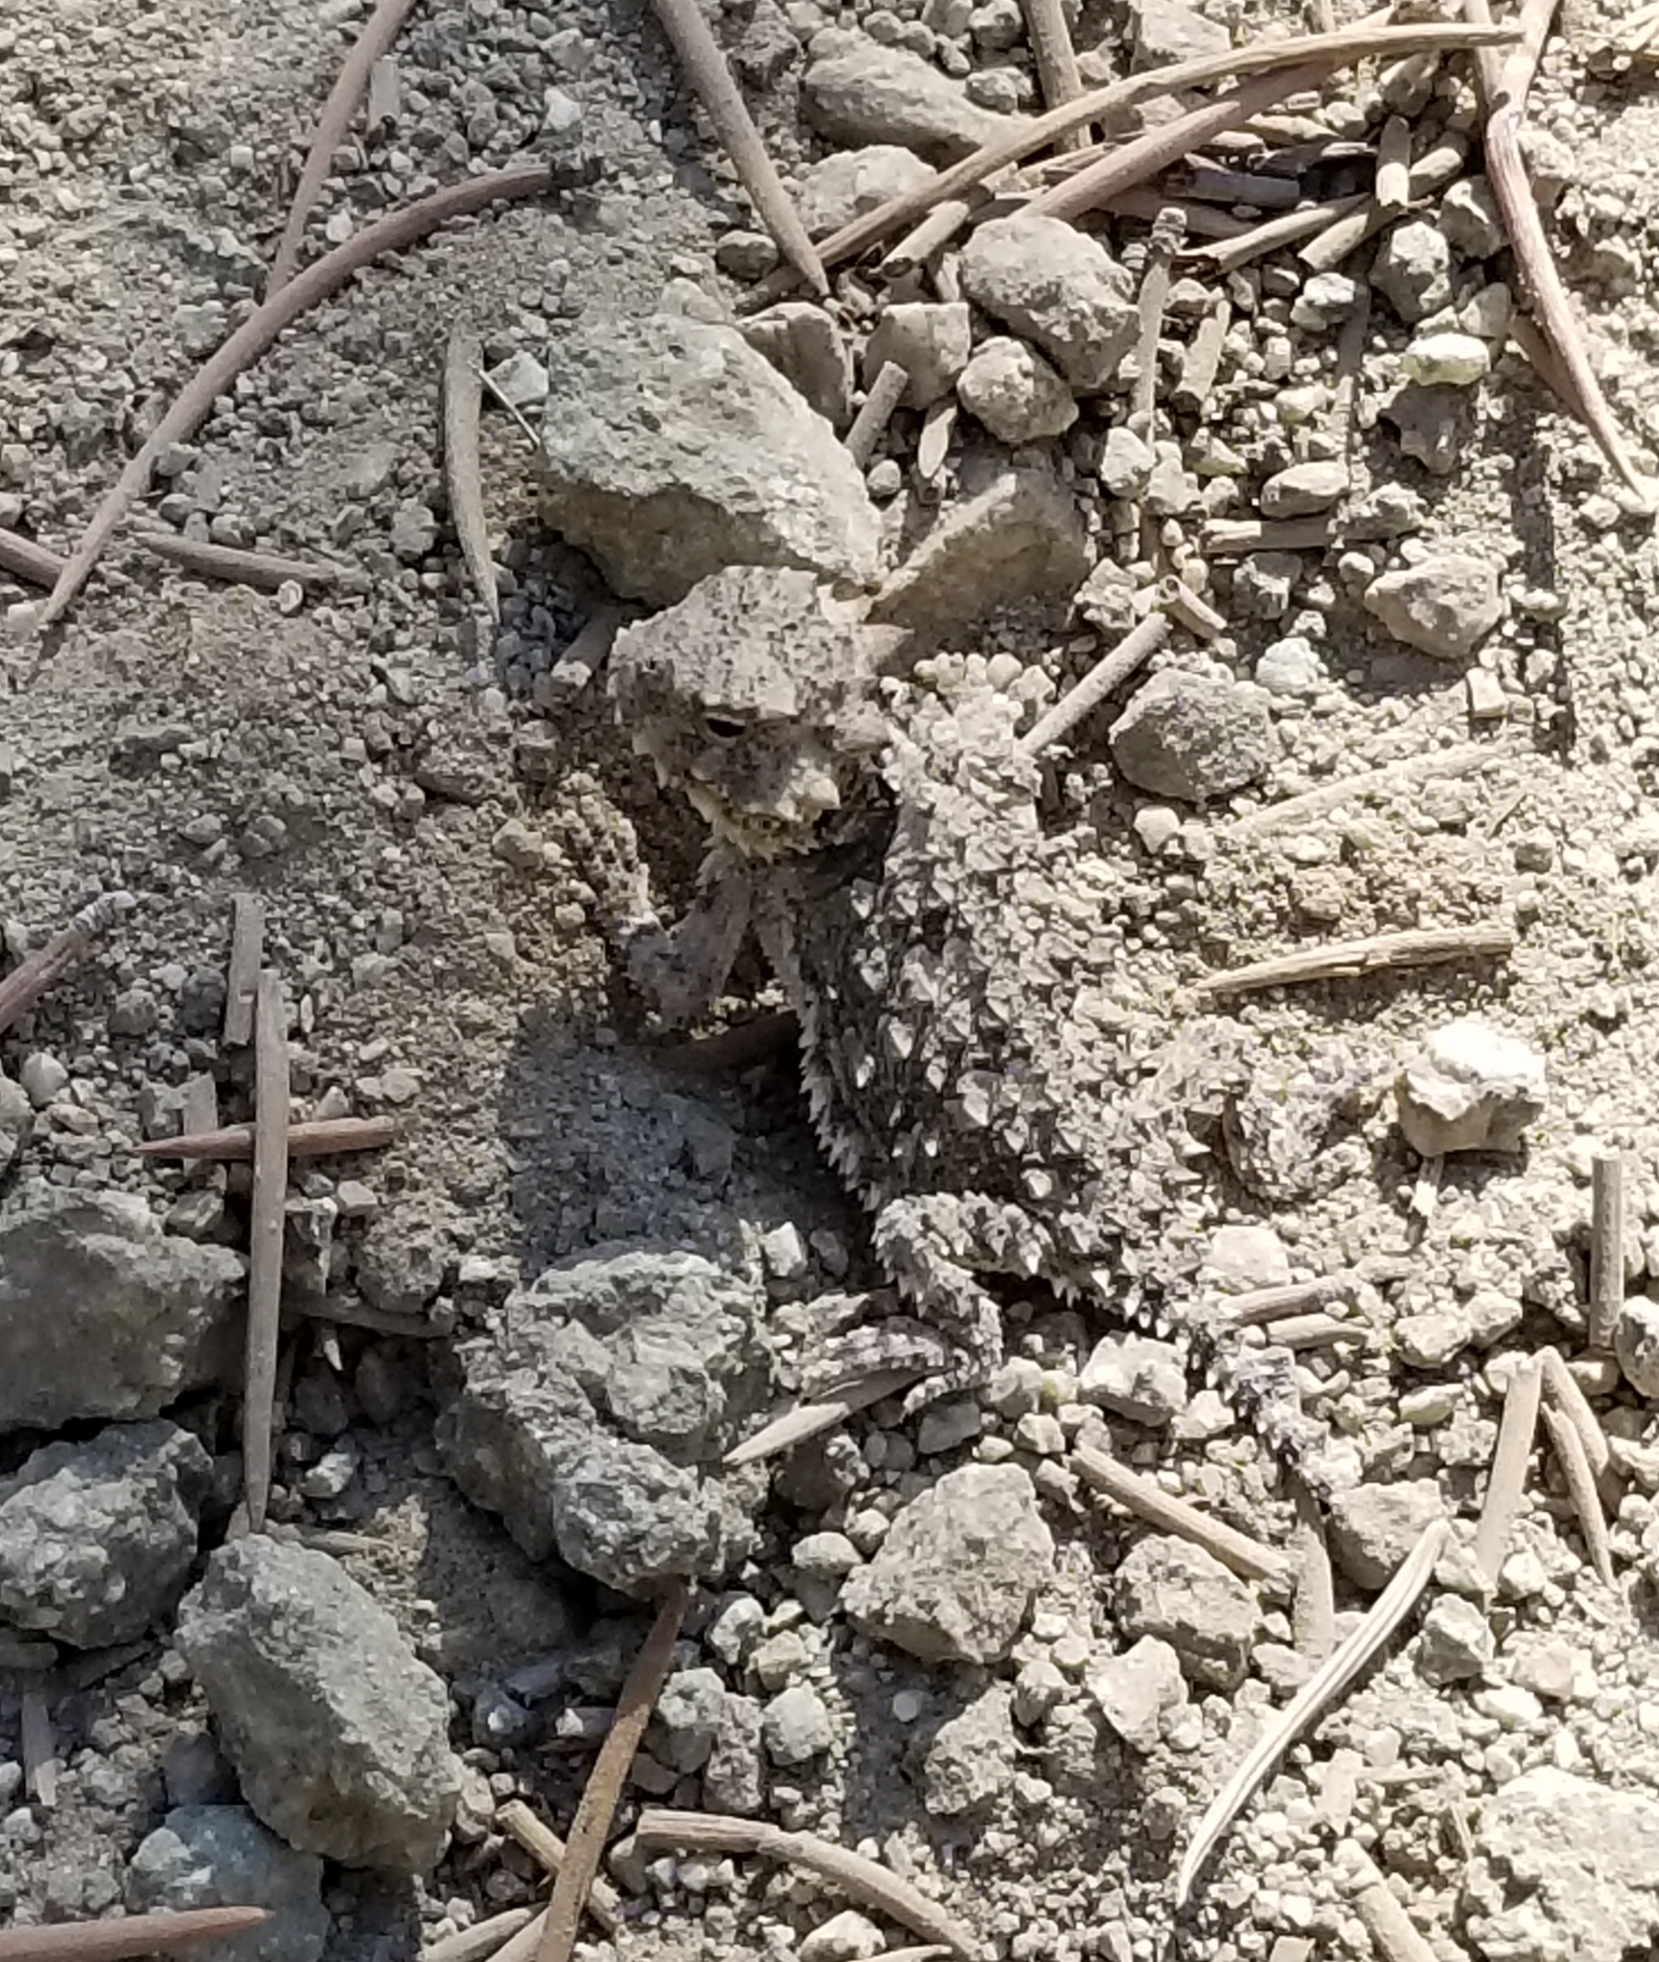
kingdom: Animalia
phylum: Chordata
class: Squamata
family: Phrynosomatidae
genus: Phrynosoma
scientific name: Phrynosoma blainvillii
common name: San diego horned lizard
